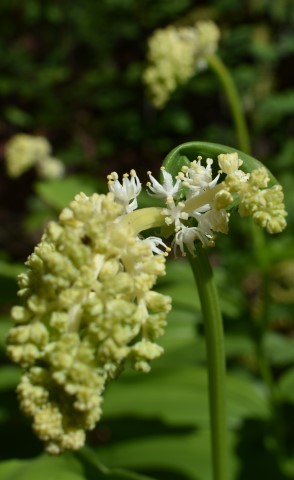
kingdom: Plantae
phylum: Tracheophyta
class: Liliopsida
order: Asparagales
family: Asparagaceae
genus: Maianthemum
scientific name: Maianthemum racemosum
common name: False spikenard
